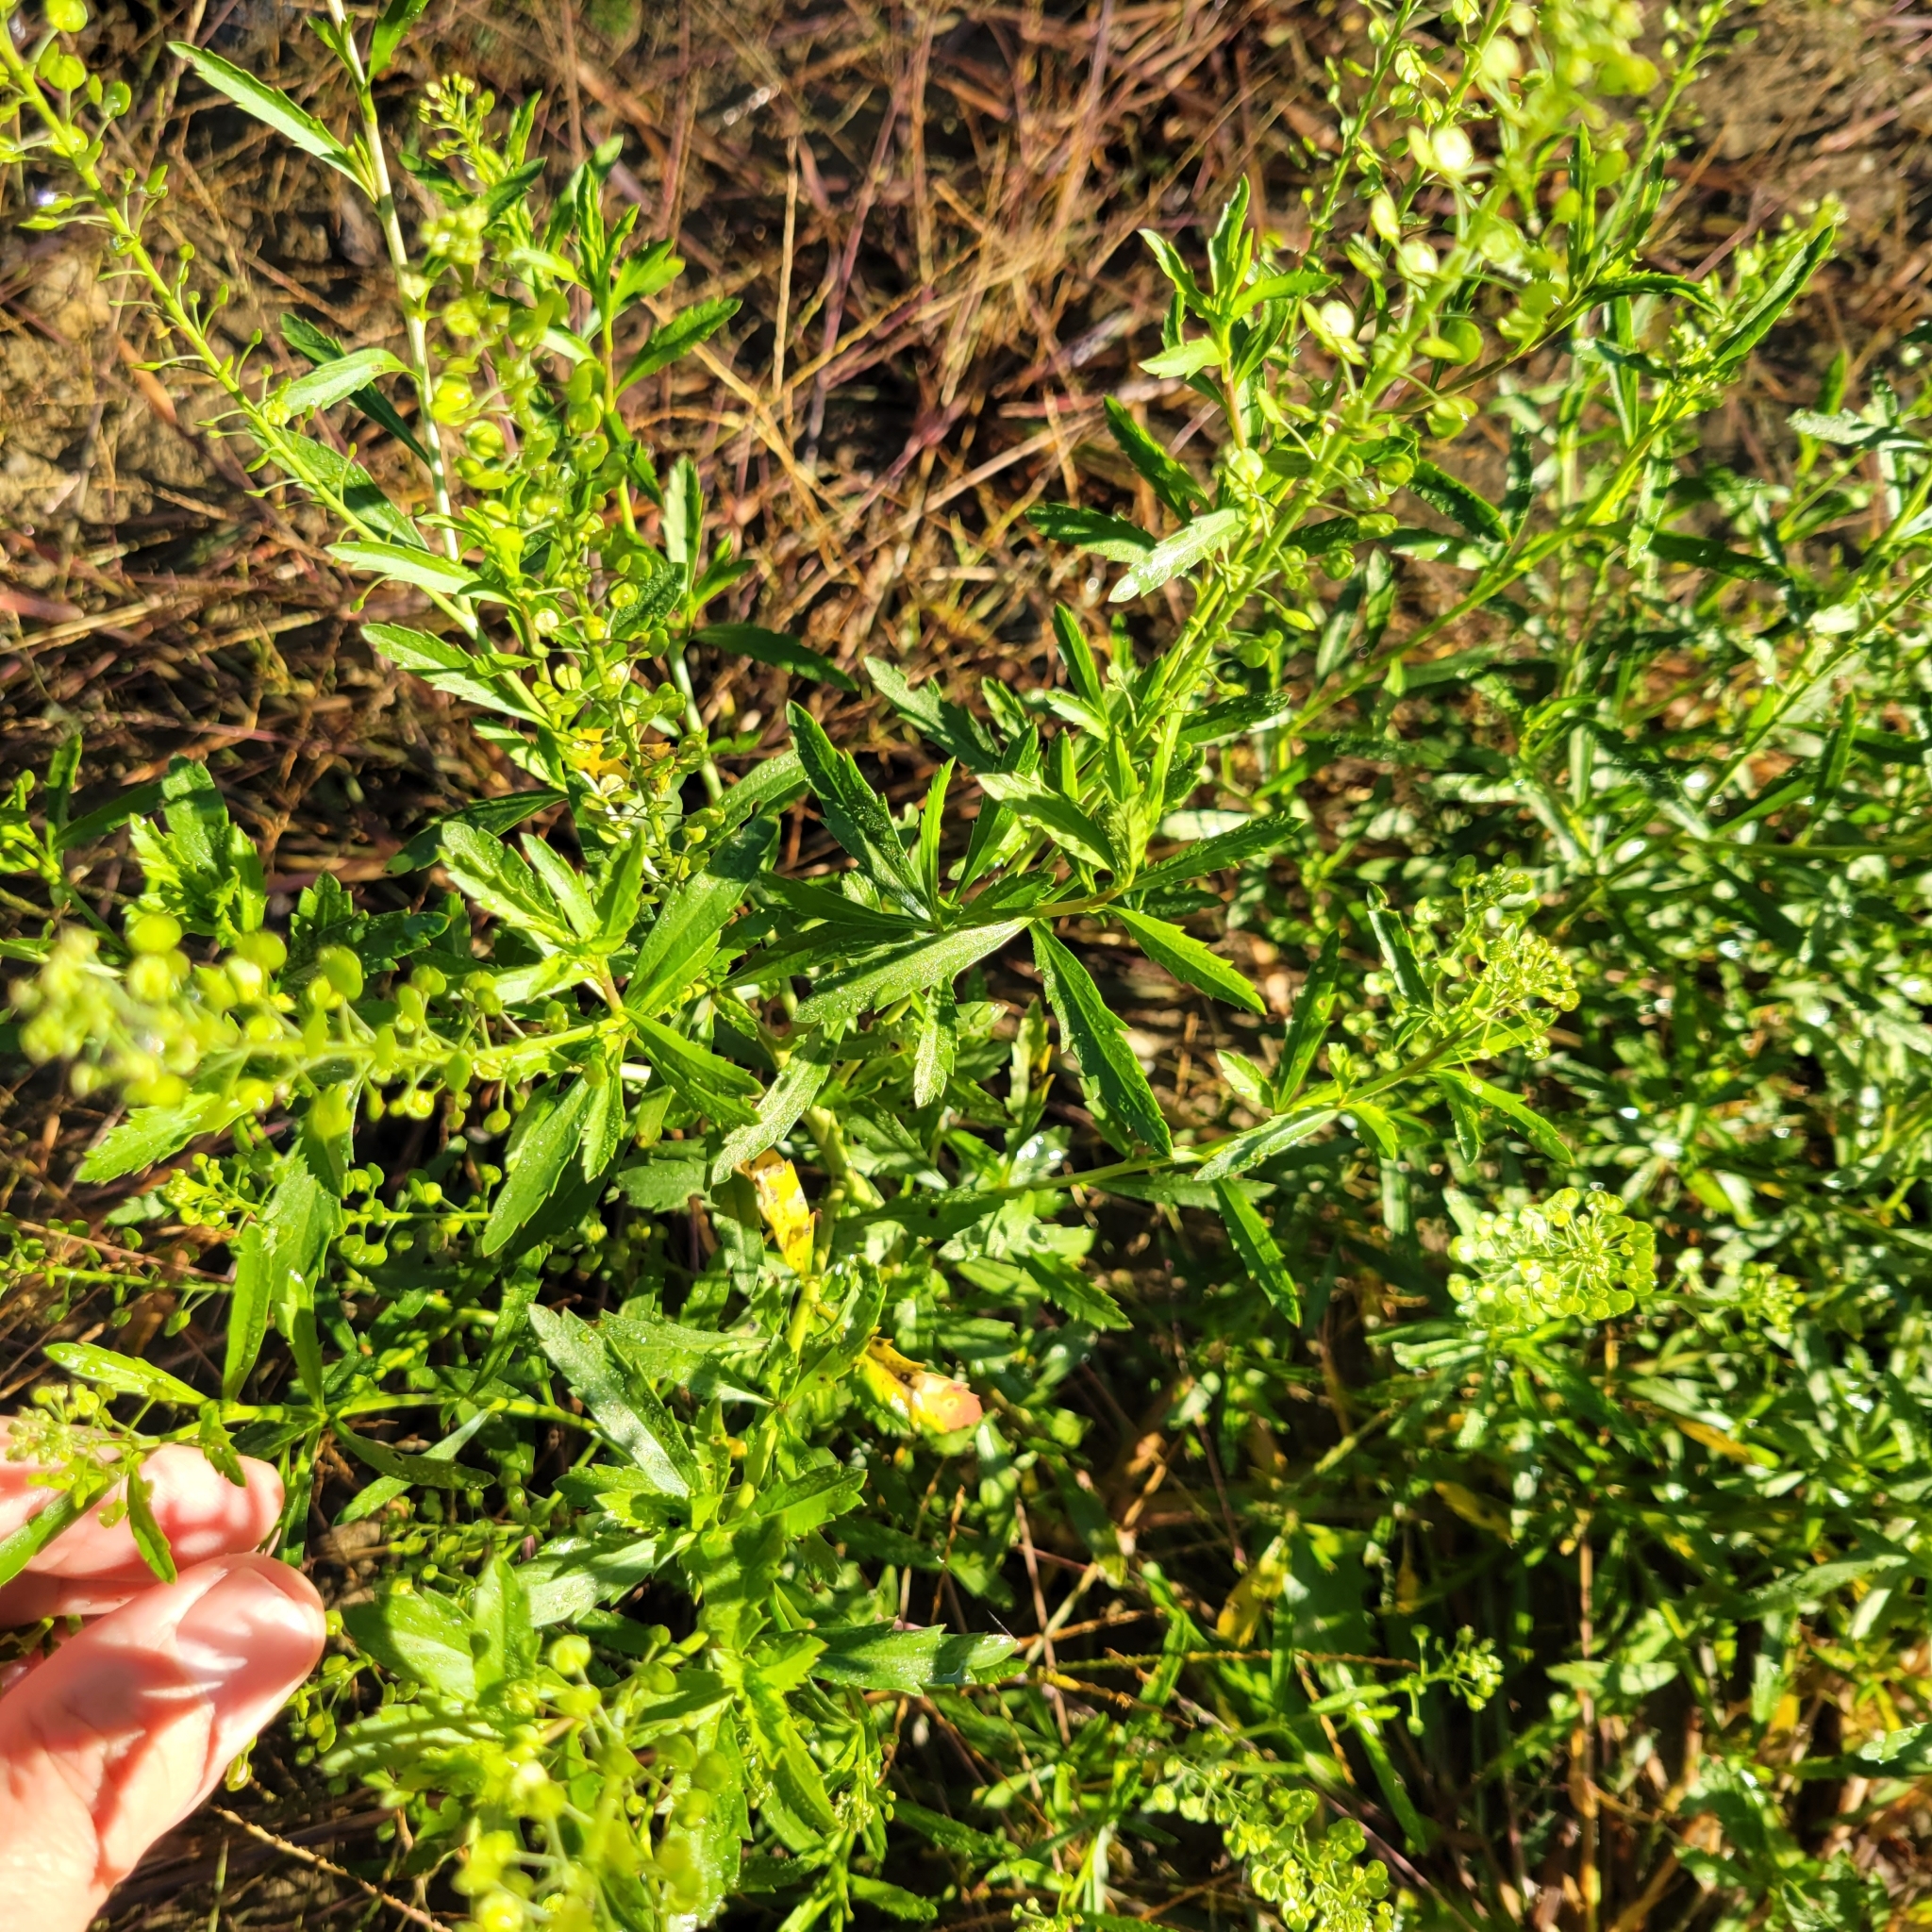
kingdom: Plantae
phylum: Tracheophyta
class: Magnoliopsida
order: Brassicales
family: Brassicaceae
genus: Lepidium
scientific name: Lepidium virginicum
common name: Least pepperwort
